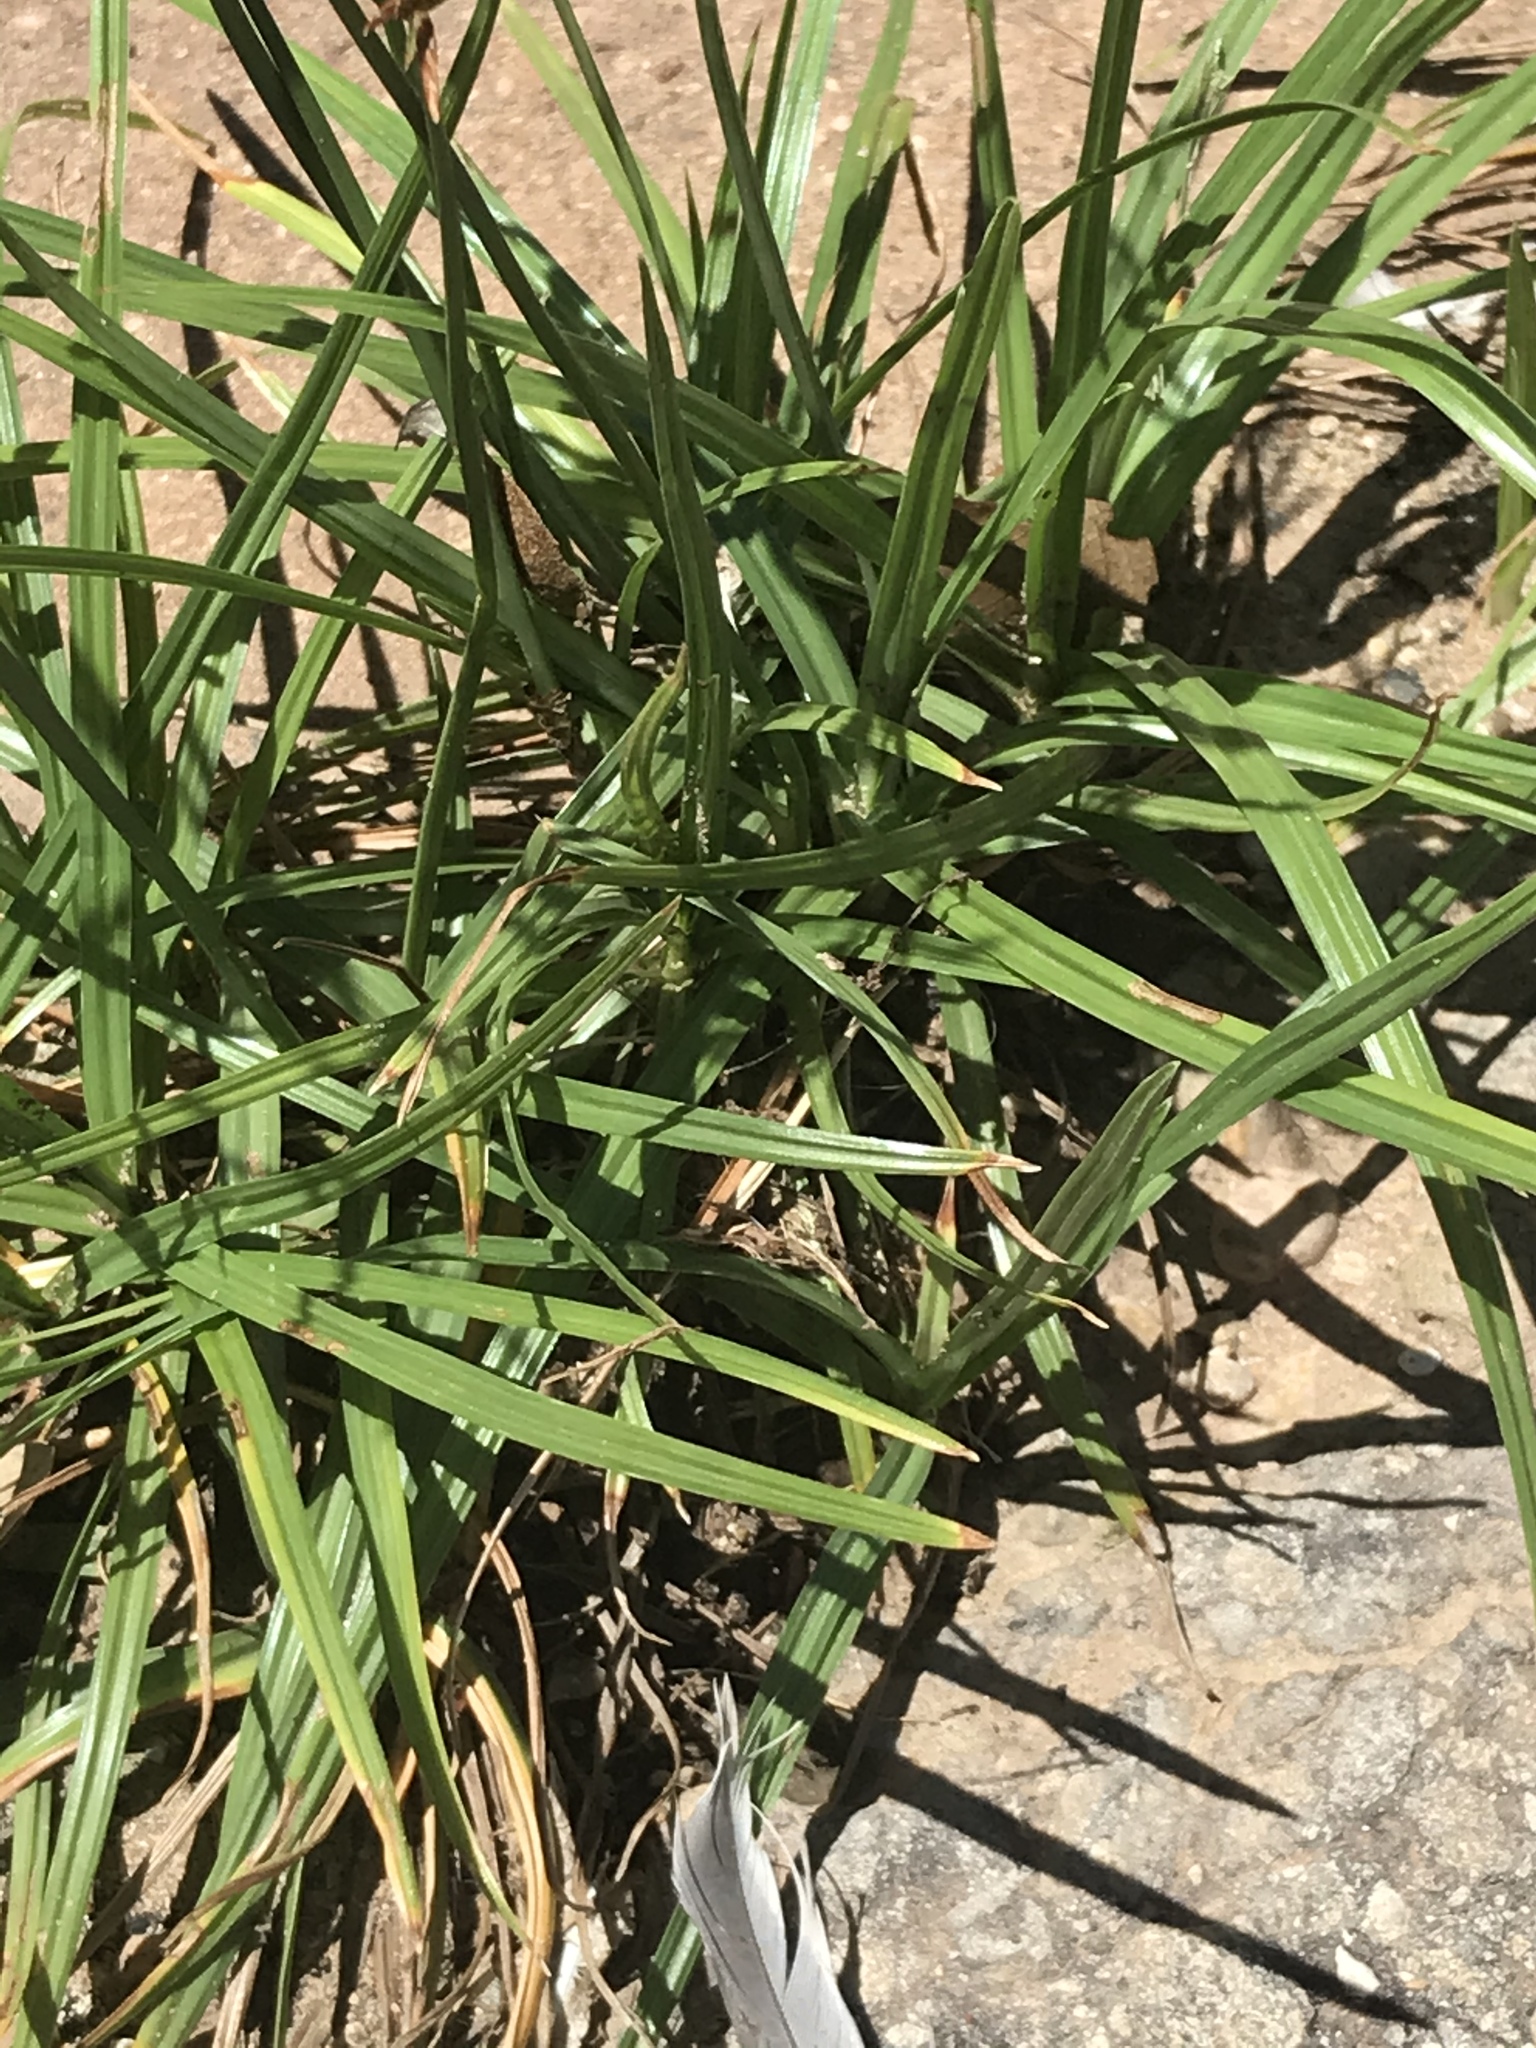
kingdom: Plantae
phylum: Tracheophyta
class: Liliopsida
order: Poales
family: Cyperaceae
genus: Cyperus
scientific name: Cyperus rotundus
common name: Nutgrass
